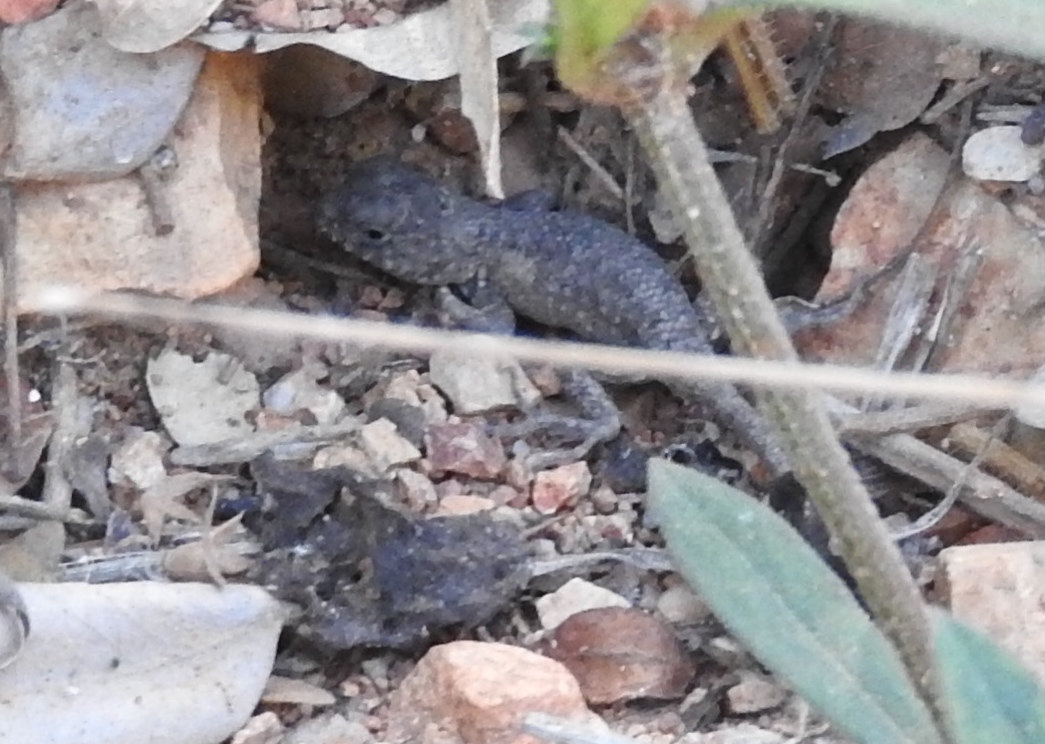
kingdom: Animalia
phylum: Chordata
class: Squamata
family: Phrynosomatidae
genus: Sceloporus
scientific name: Sceloporus nelsoni
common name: Nelson's spiny lizard
